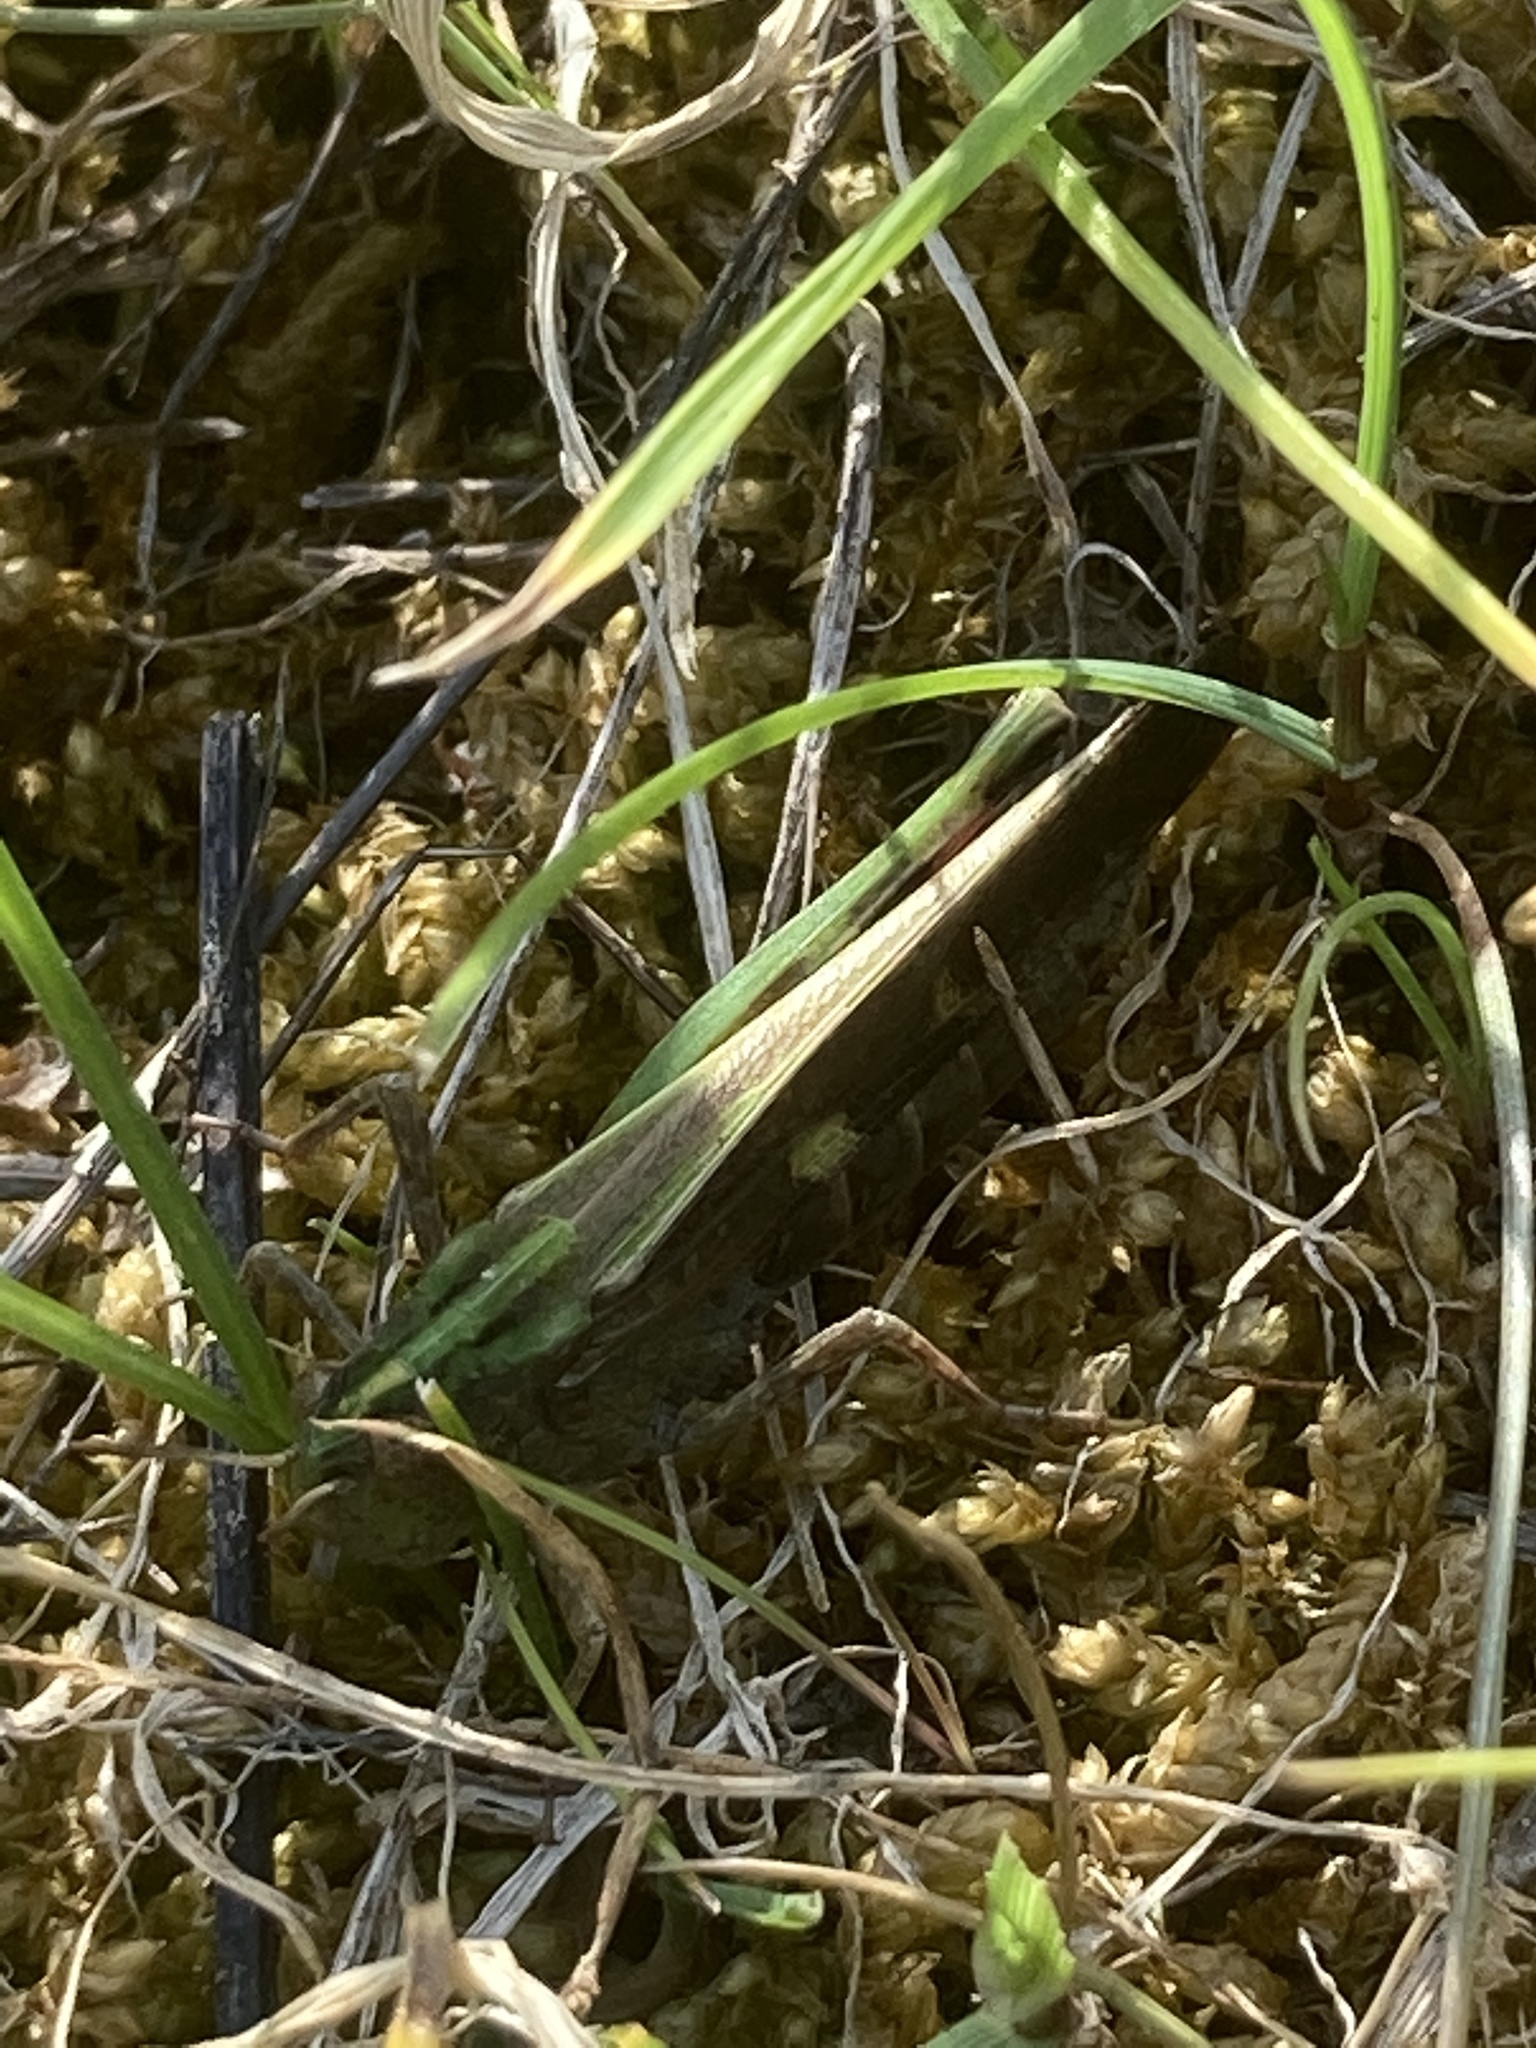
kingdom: Animalia
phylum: Arthropoda
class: Insecta
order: Orthoptera
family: Acrididae
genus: Aiolopus
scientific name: Aiolopus
